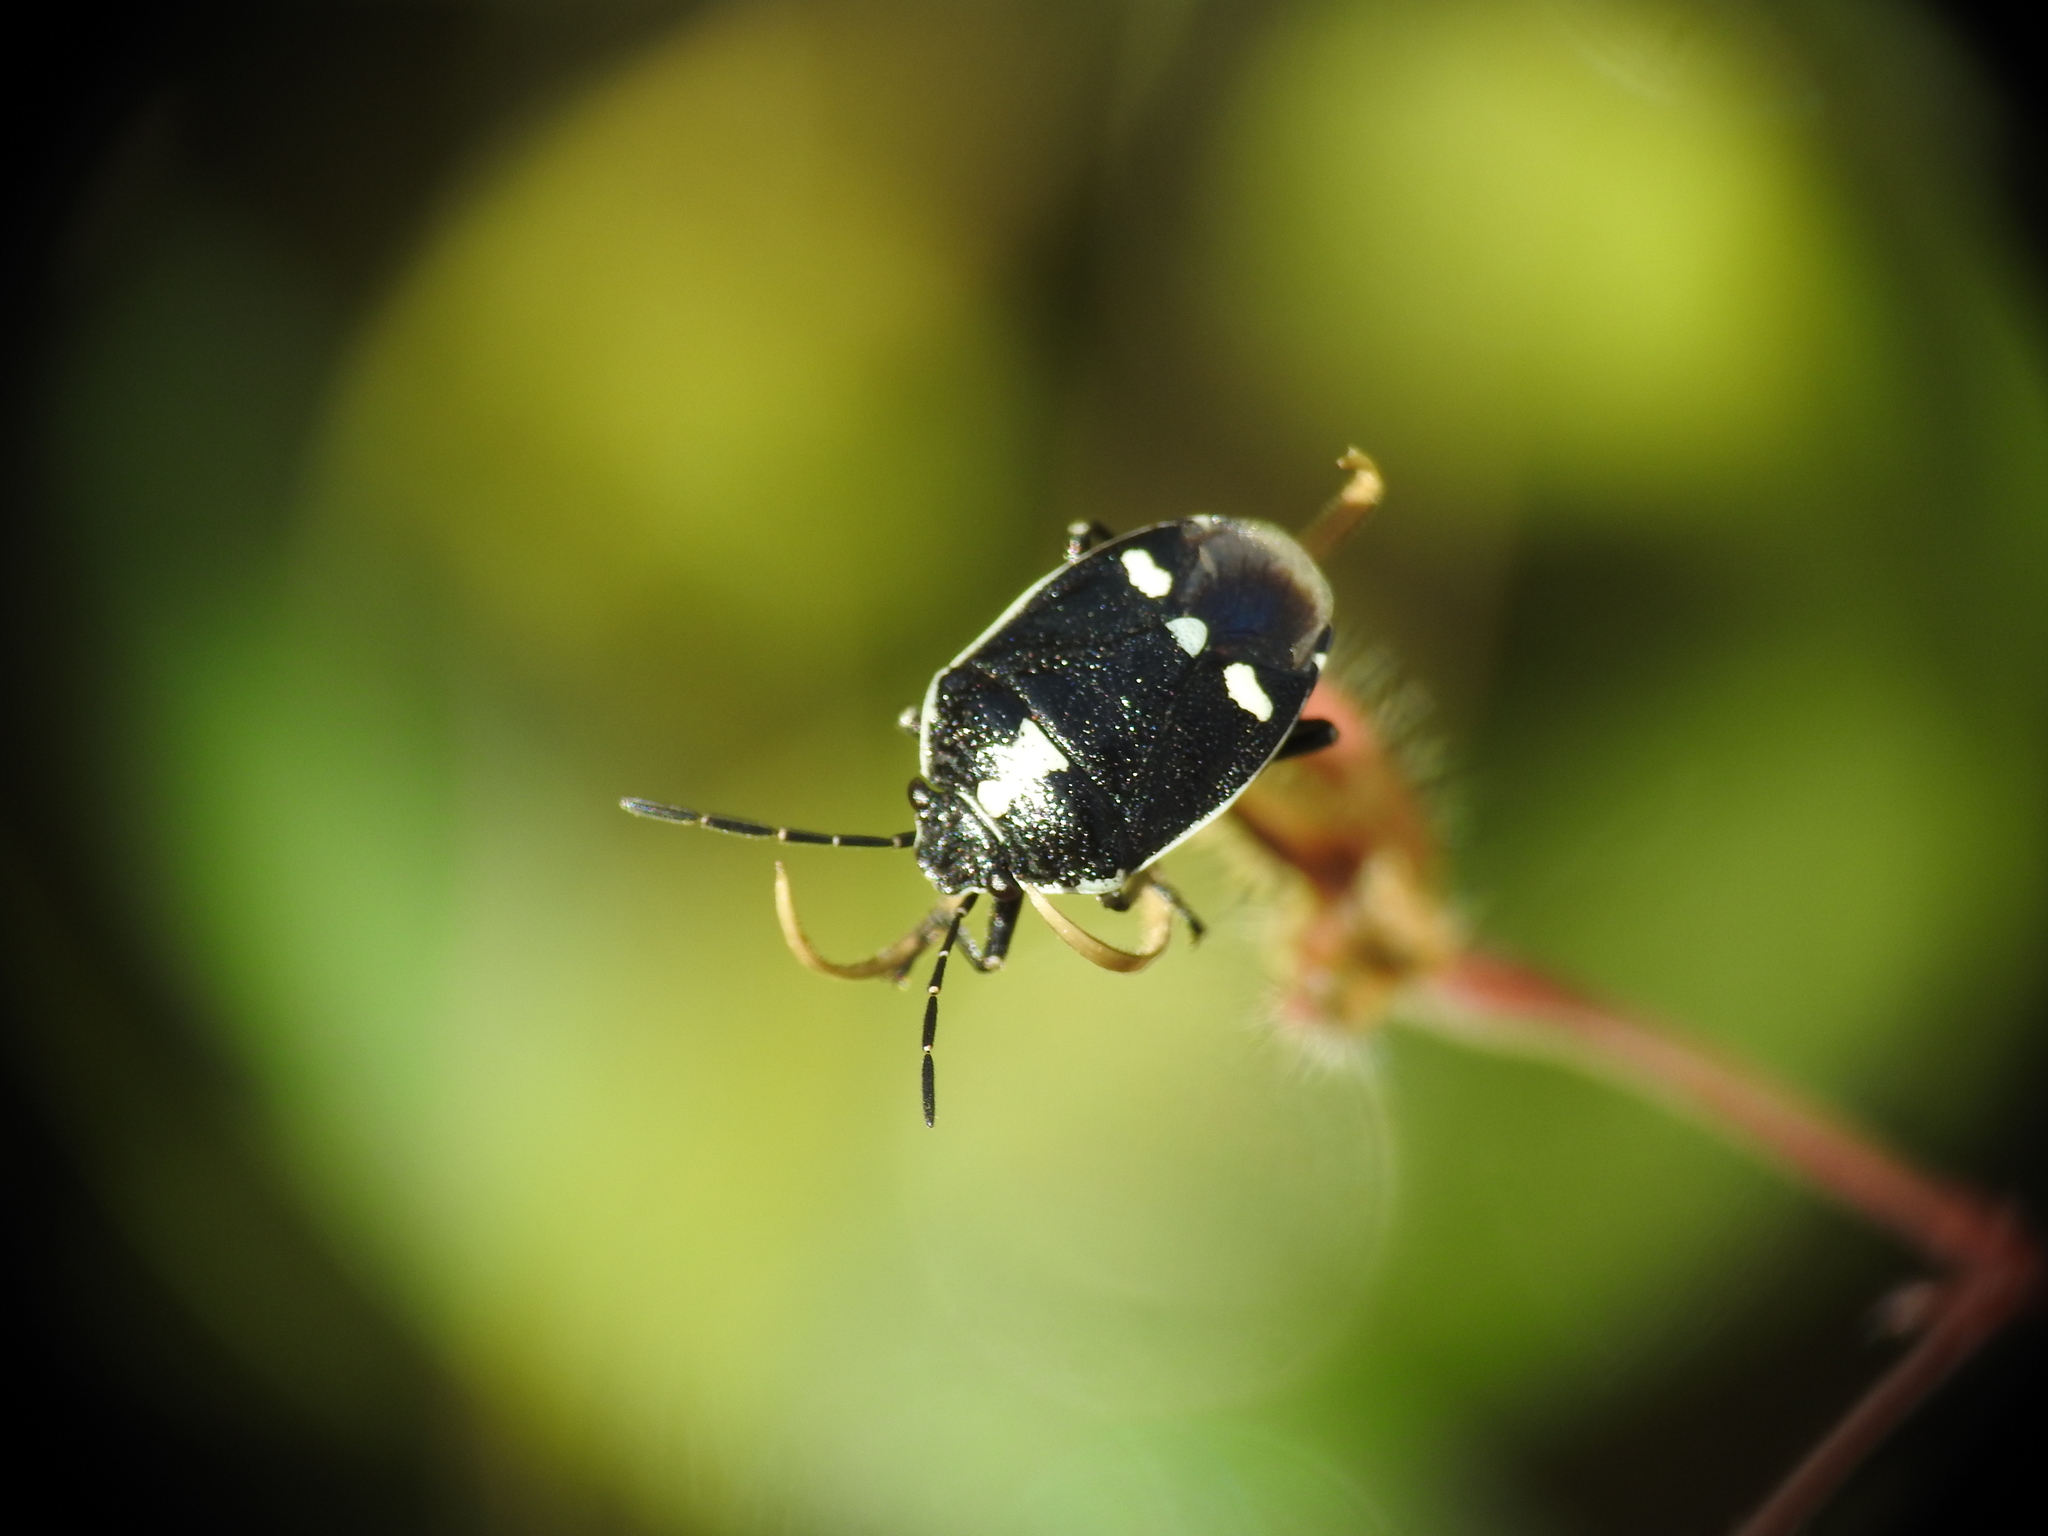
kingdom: Animalia
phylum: Arthropoda
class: Insecta
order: Hemiptera
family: Pentatomidae
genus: Eurydema
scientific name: Eurydema oleracea
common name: Cabbage bug
